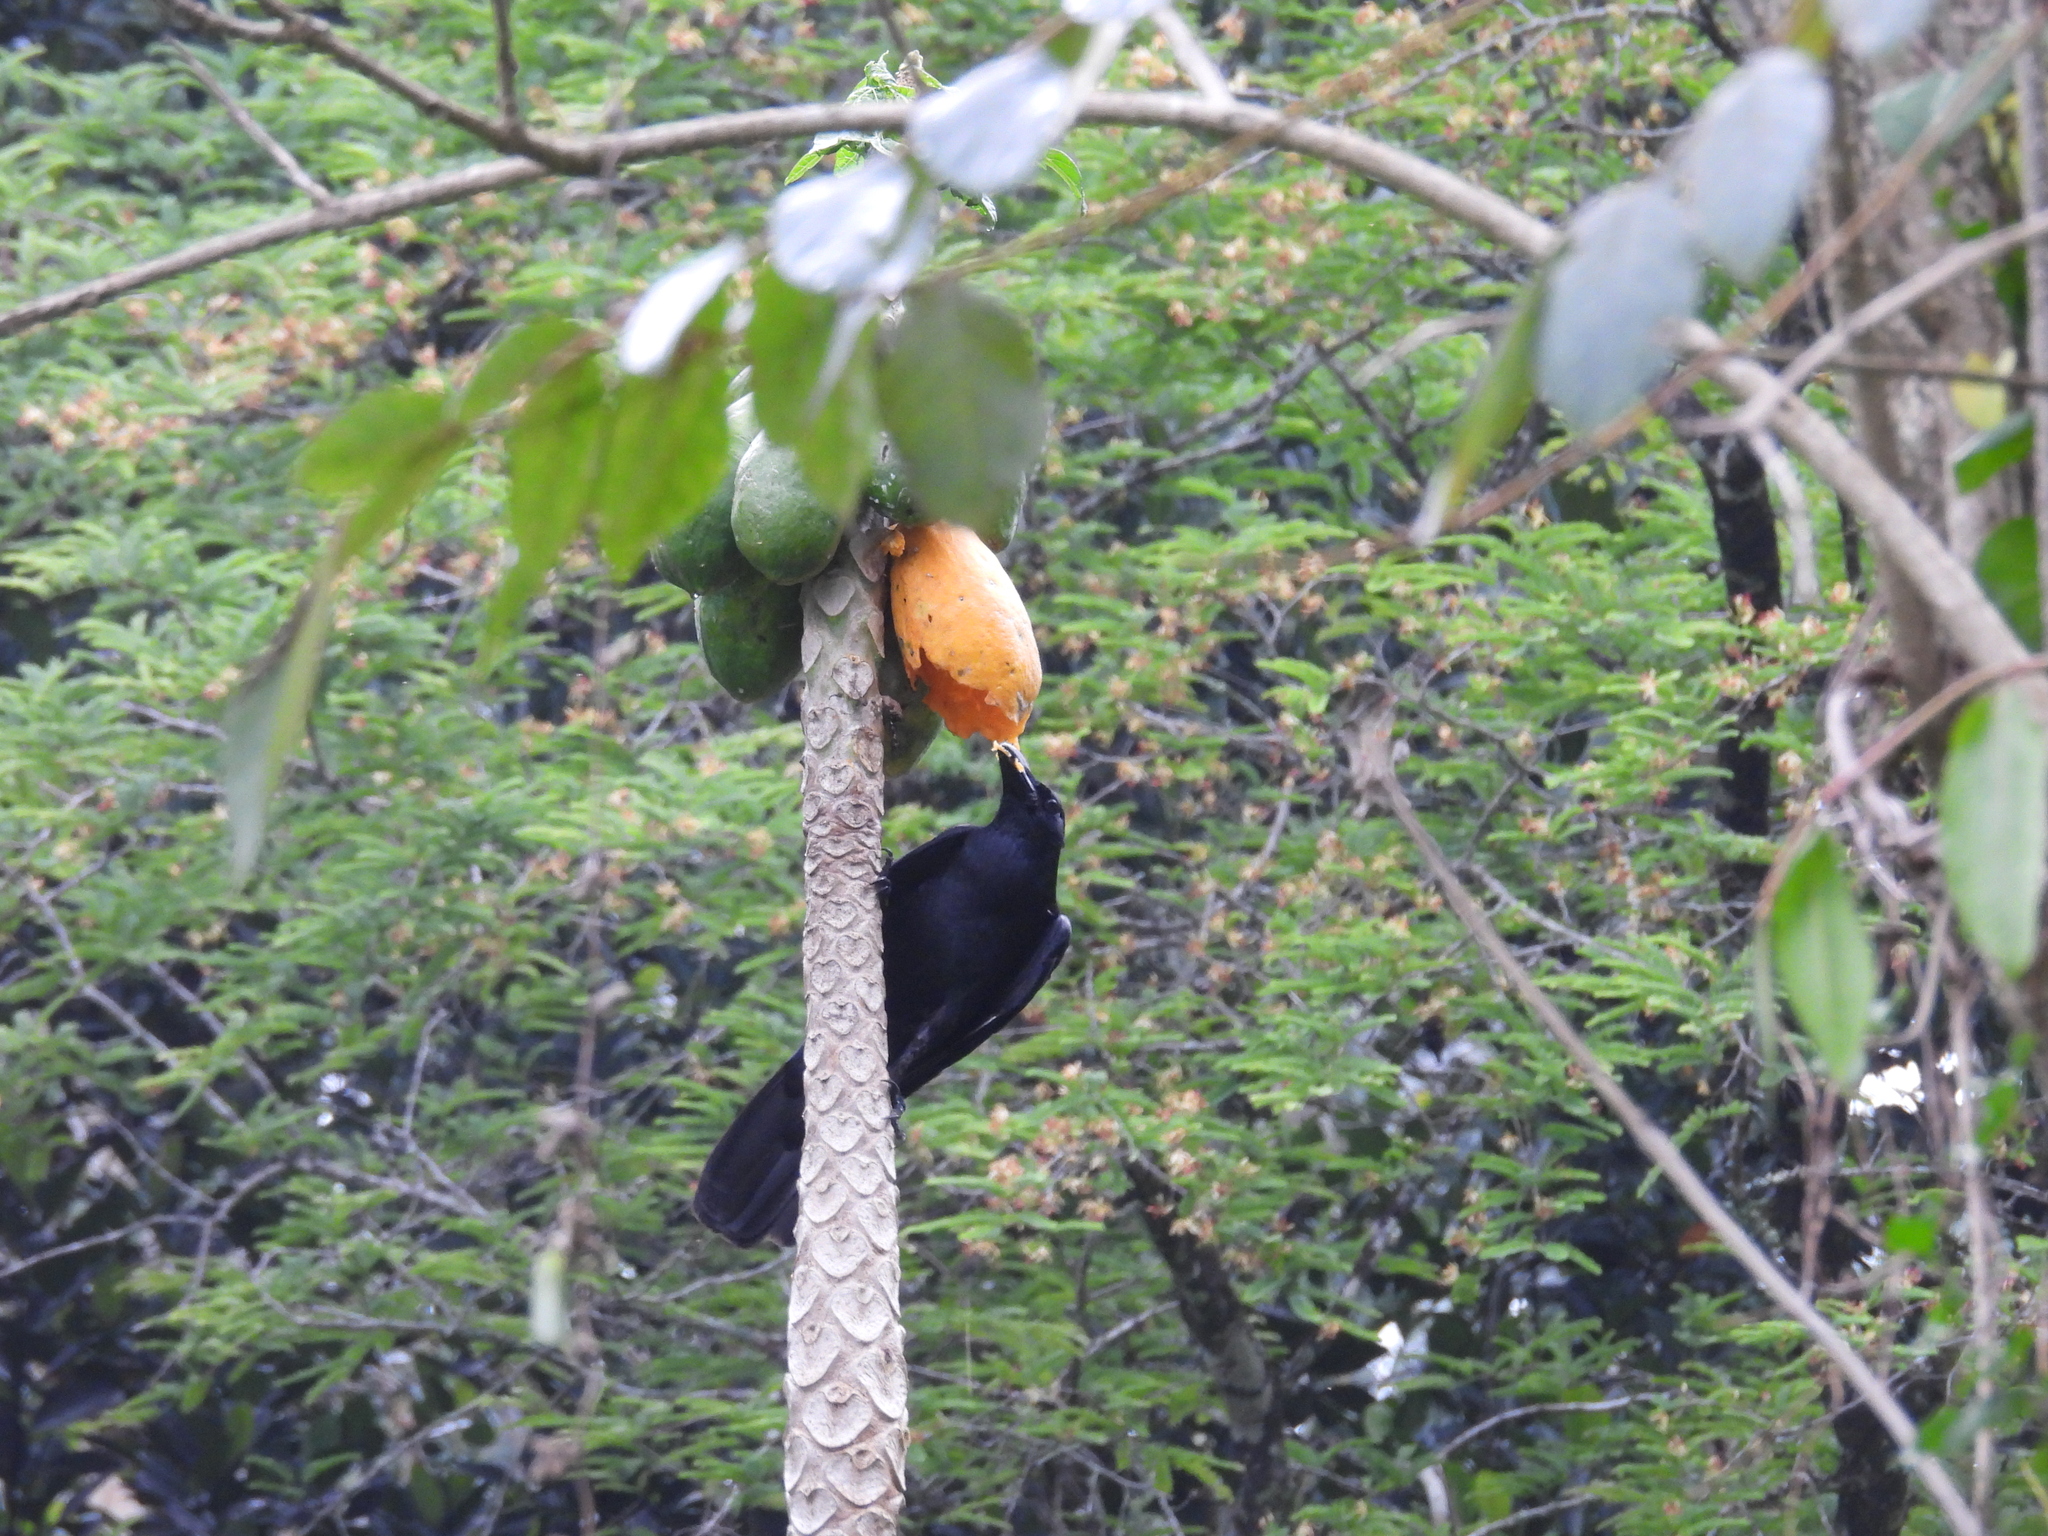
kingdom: Animalia
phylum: Chordata
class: Aves
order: Passeriformes
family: Corvidae
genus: Corvus
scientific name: Corvus macrorhynchos
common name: Large-billed crow
